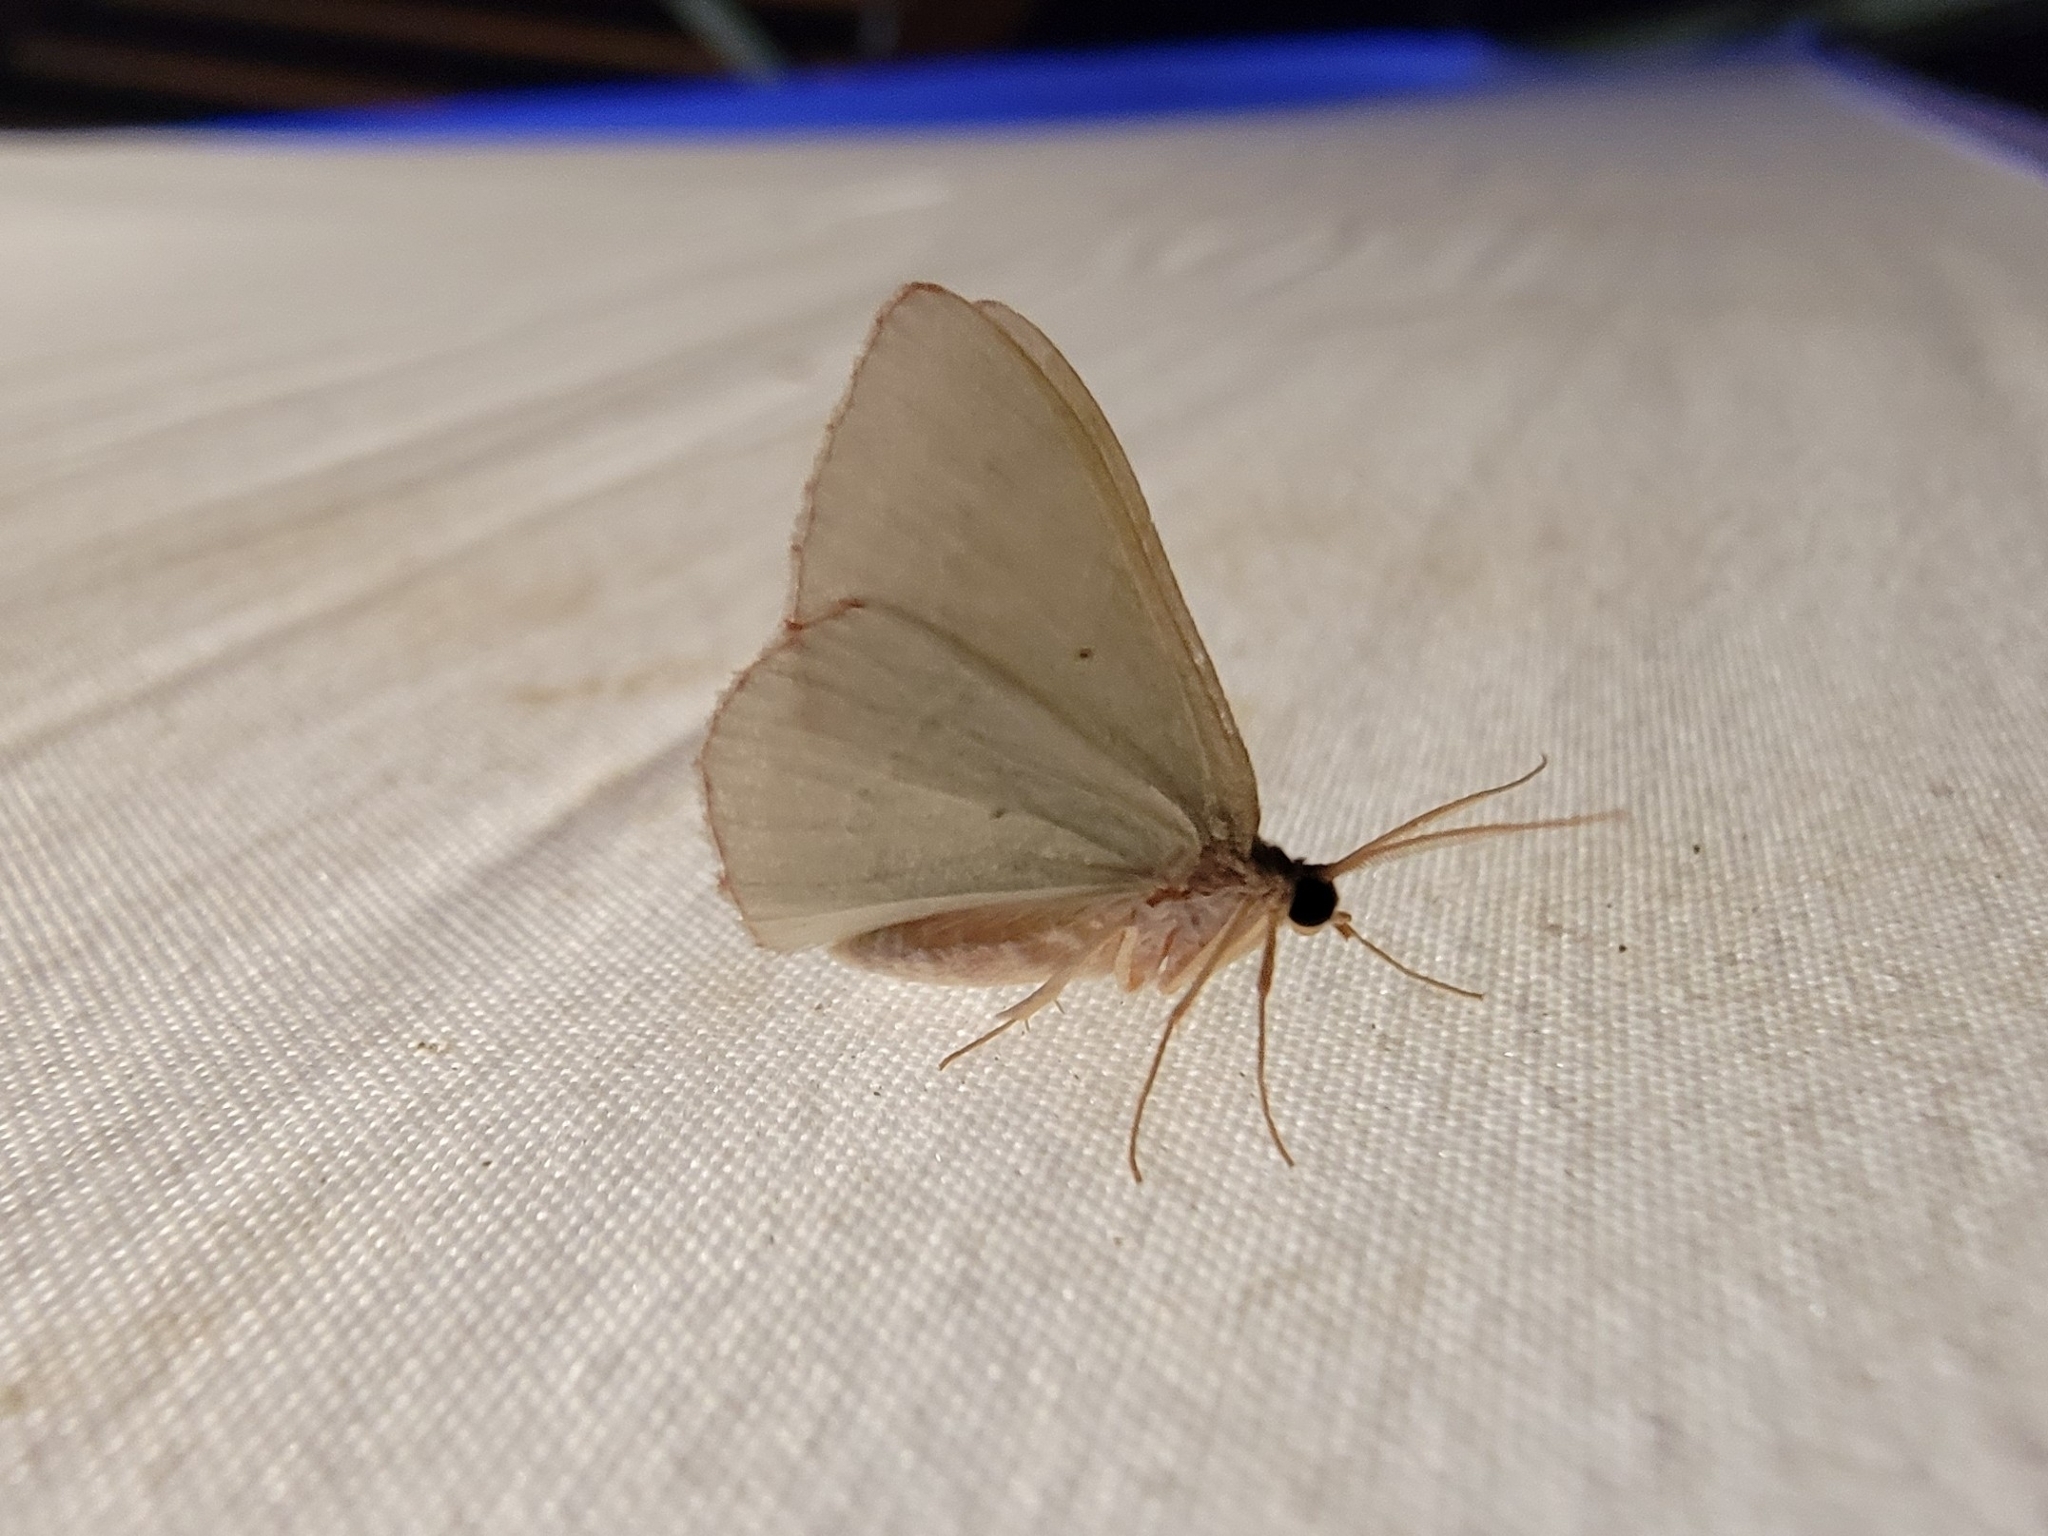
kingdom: Animalia
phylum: Arthropoda
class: Insecta
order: Lepidoptera
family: Geometridae
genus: Nemoria
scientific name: Nemoria lixaria
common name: Red-bordered emerald
